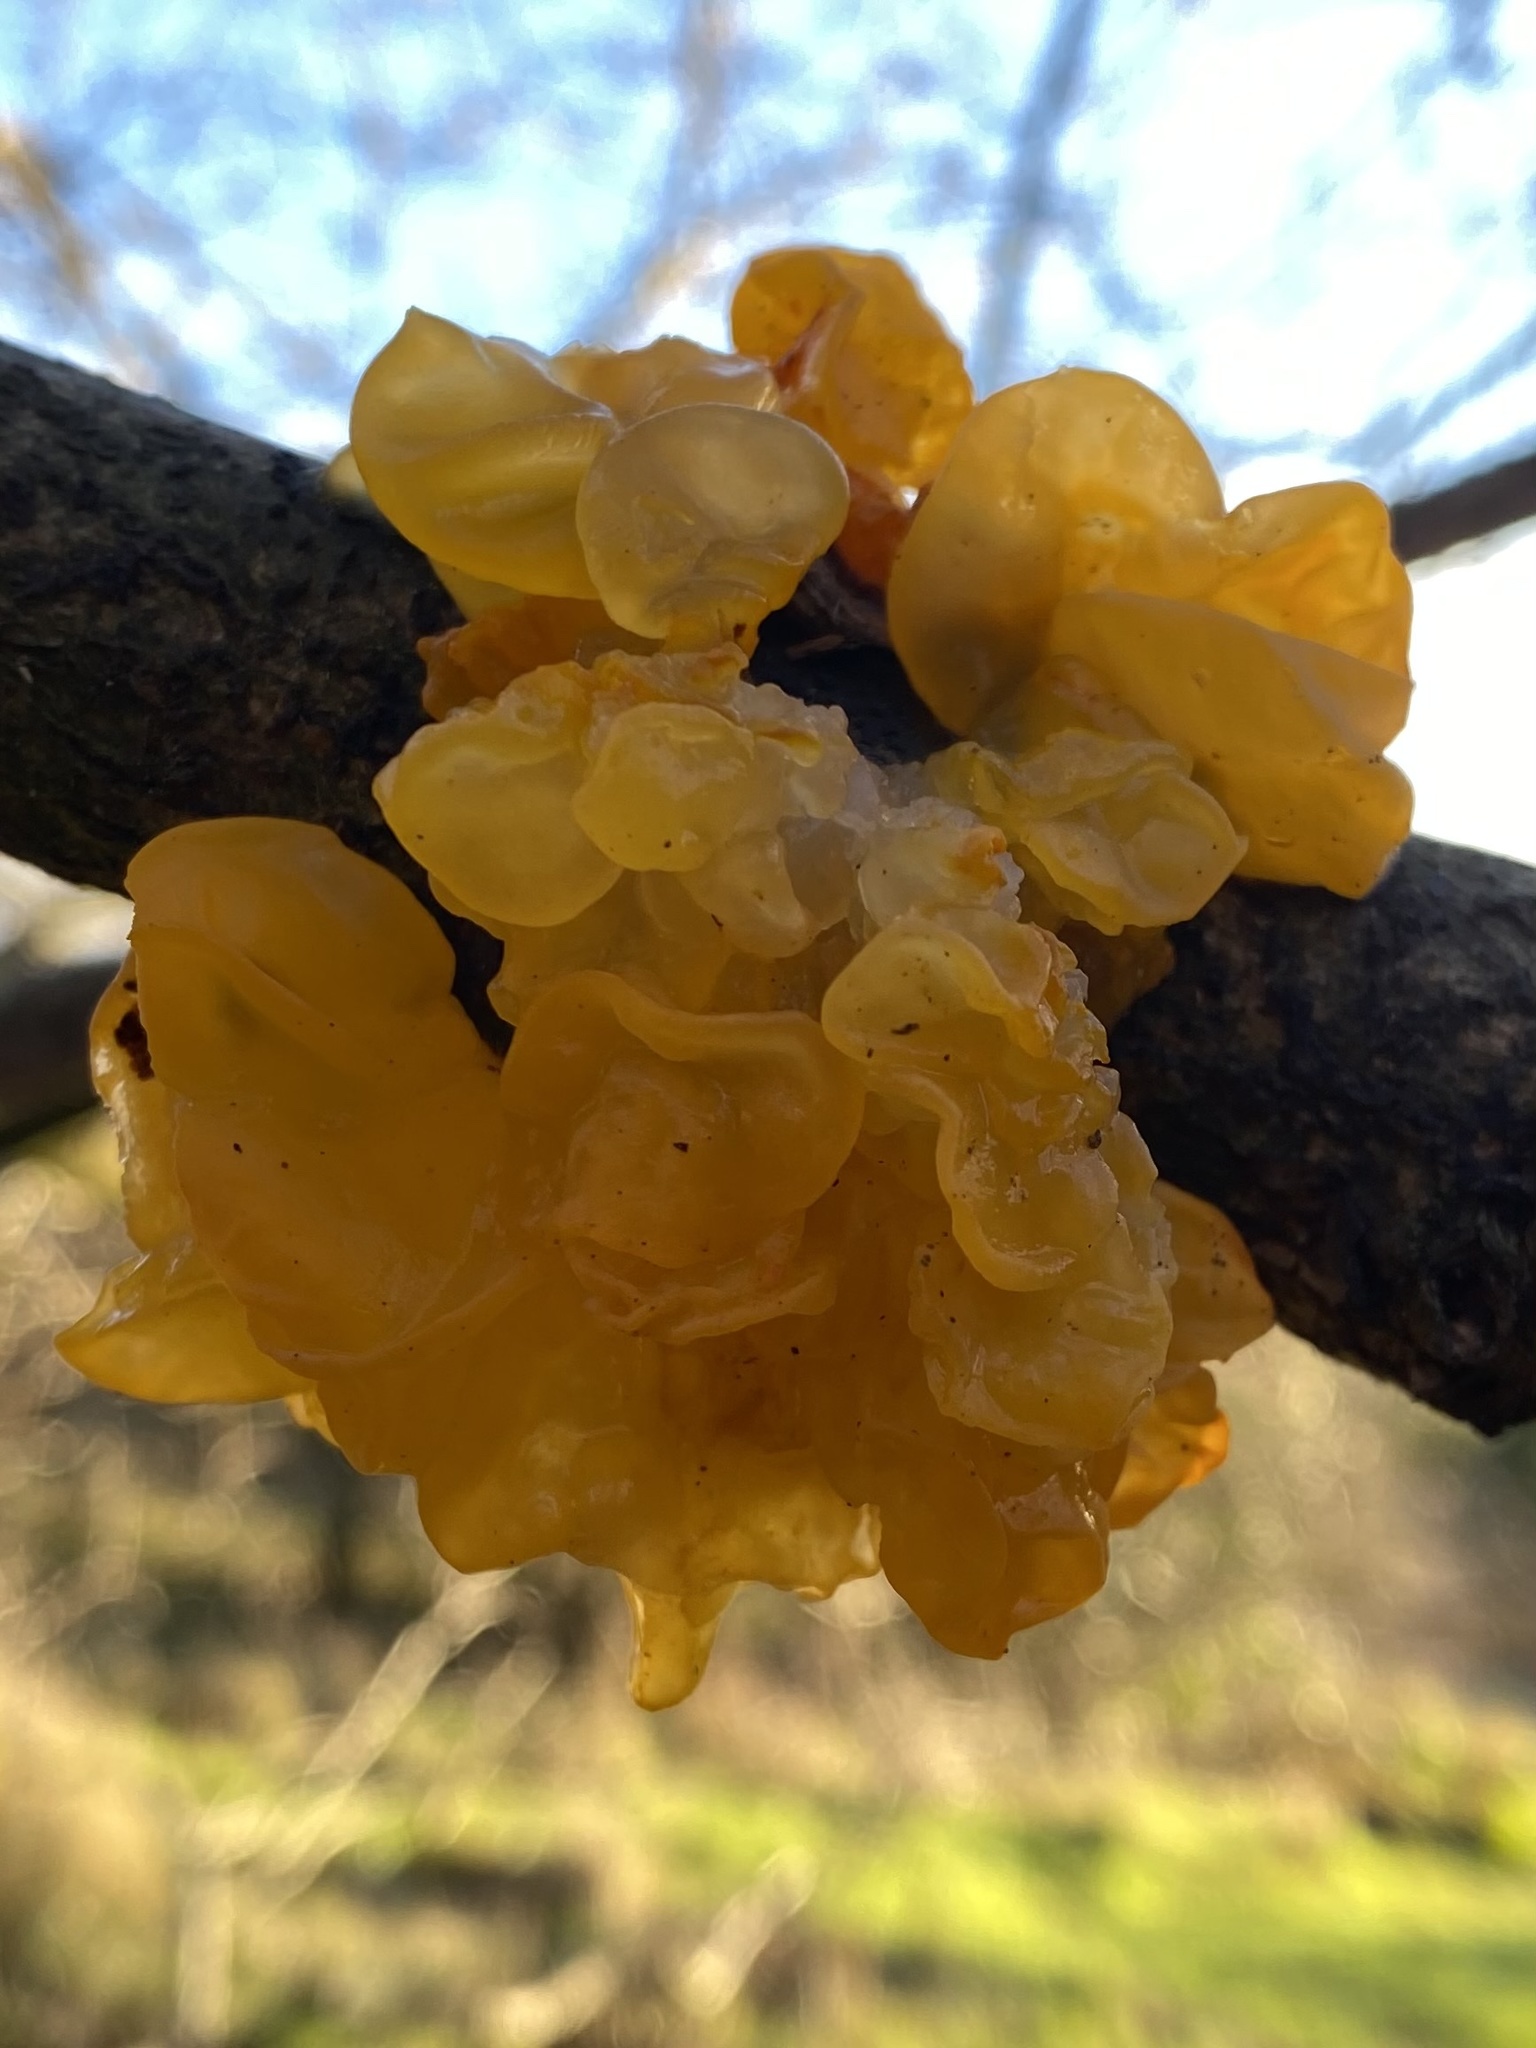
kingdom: Fungi
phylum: Basidiomycota
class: Tremellomycetes
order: Tremellales
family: Tremellaceae
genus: Tremella
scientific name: Tremella mesenterica
